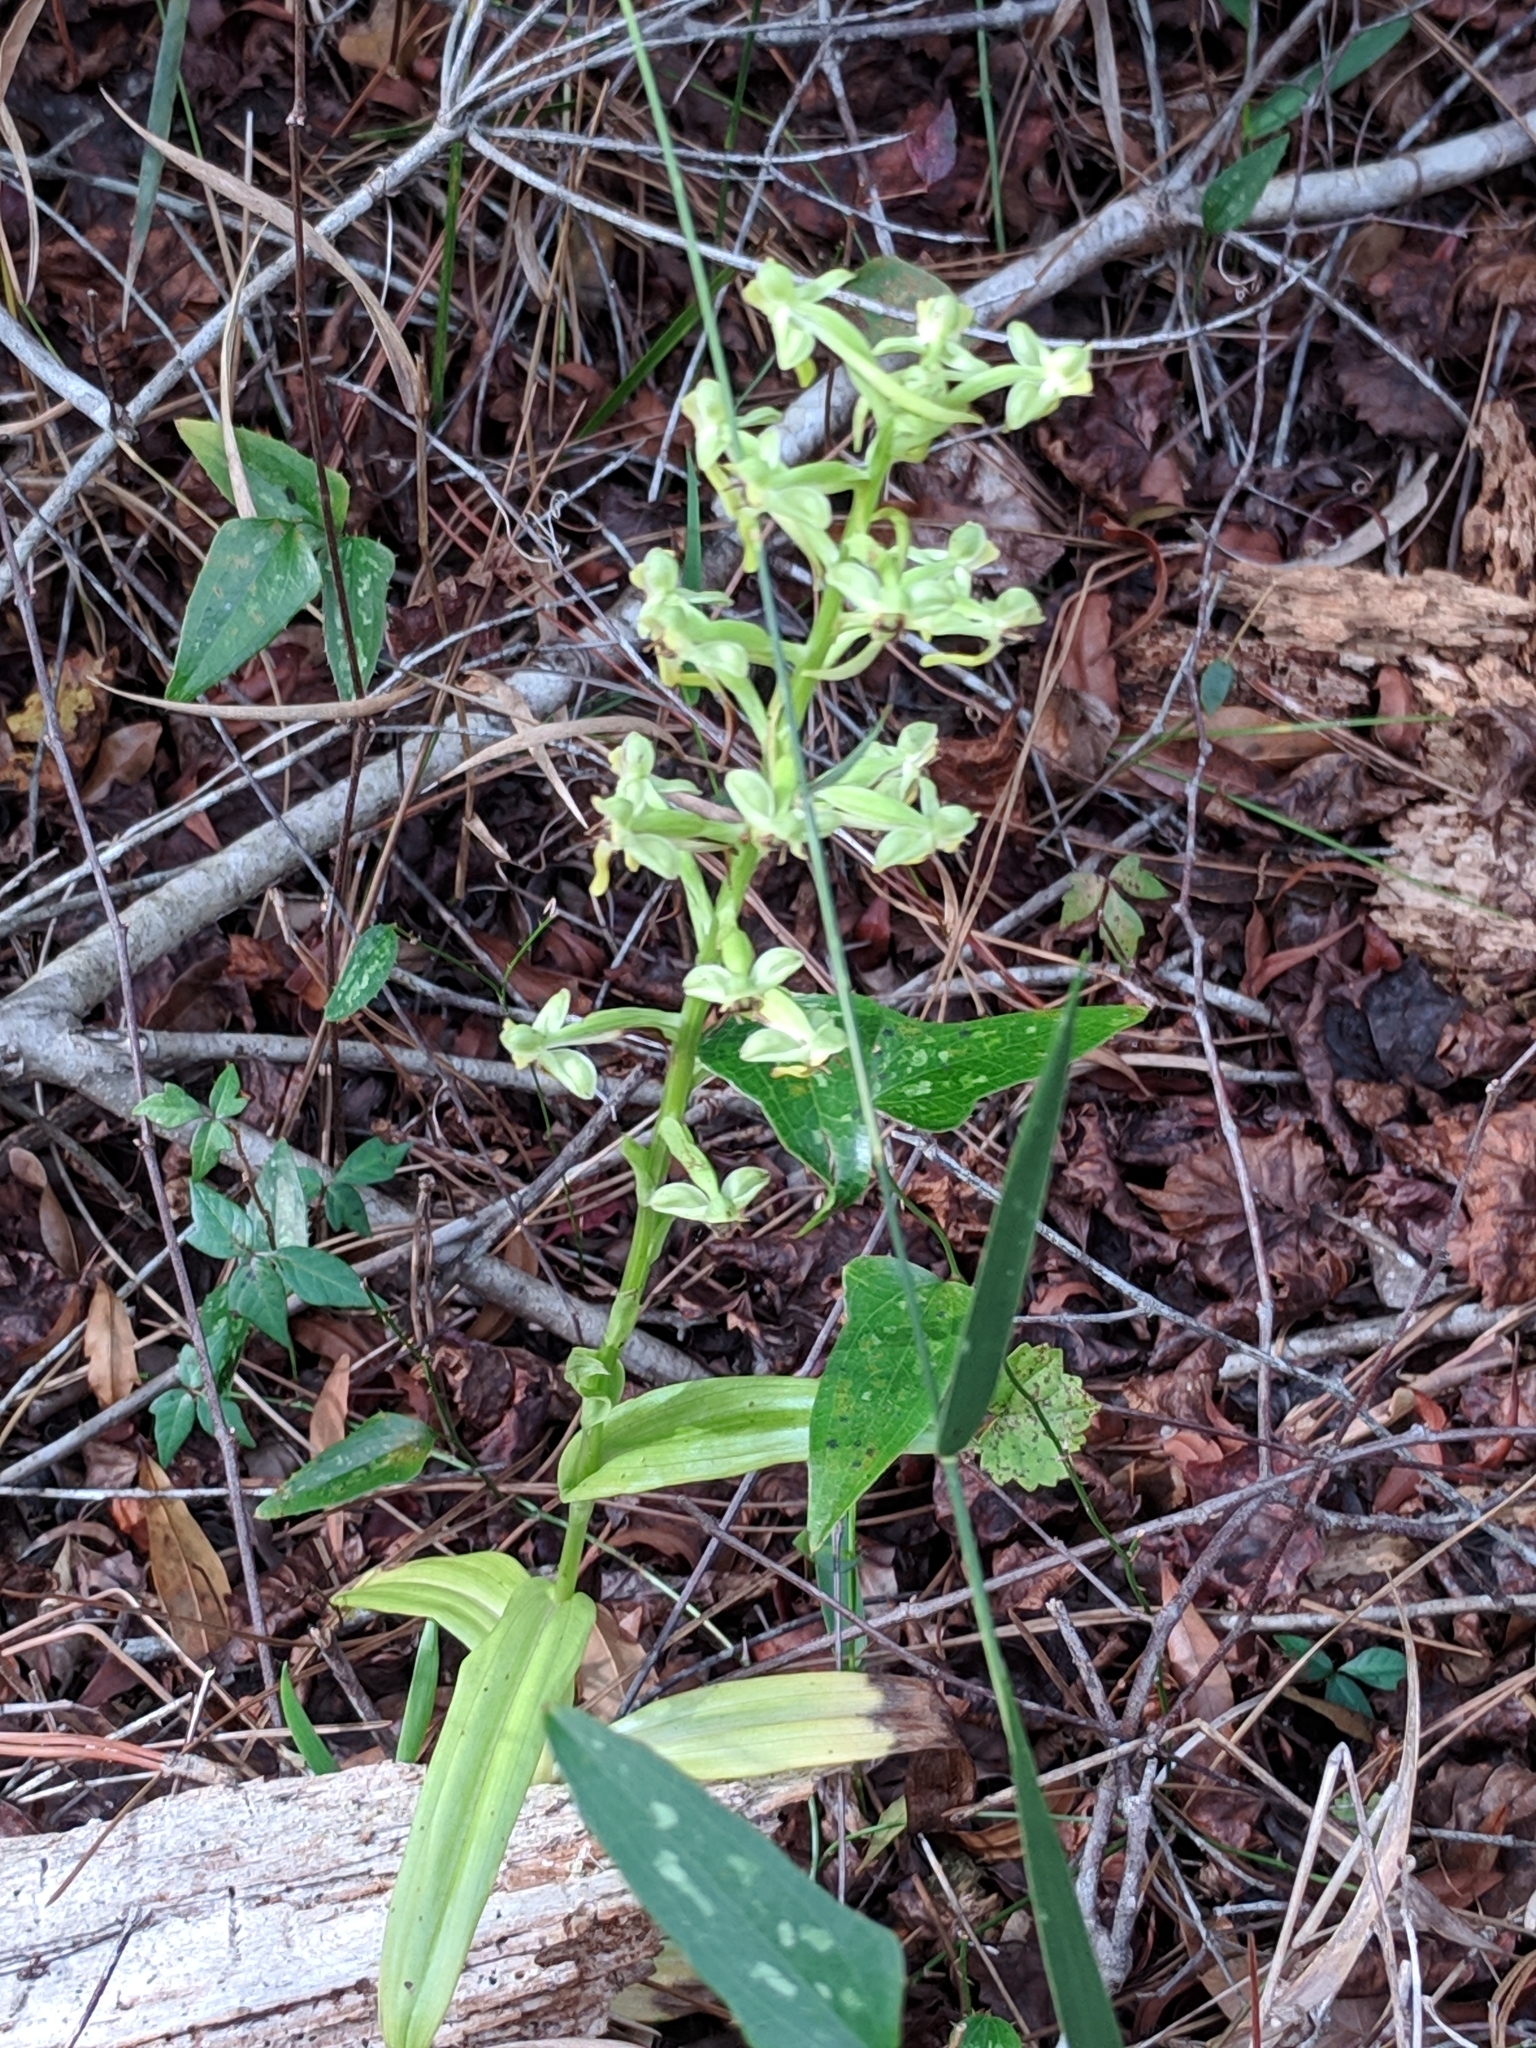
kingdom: Plantae
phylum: Tracheophyta
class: Liliopsida
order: Asparagales
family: Orchidaceae
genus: Habenaria
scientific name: Habenaria floribunda
